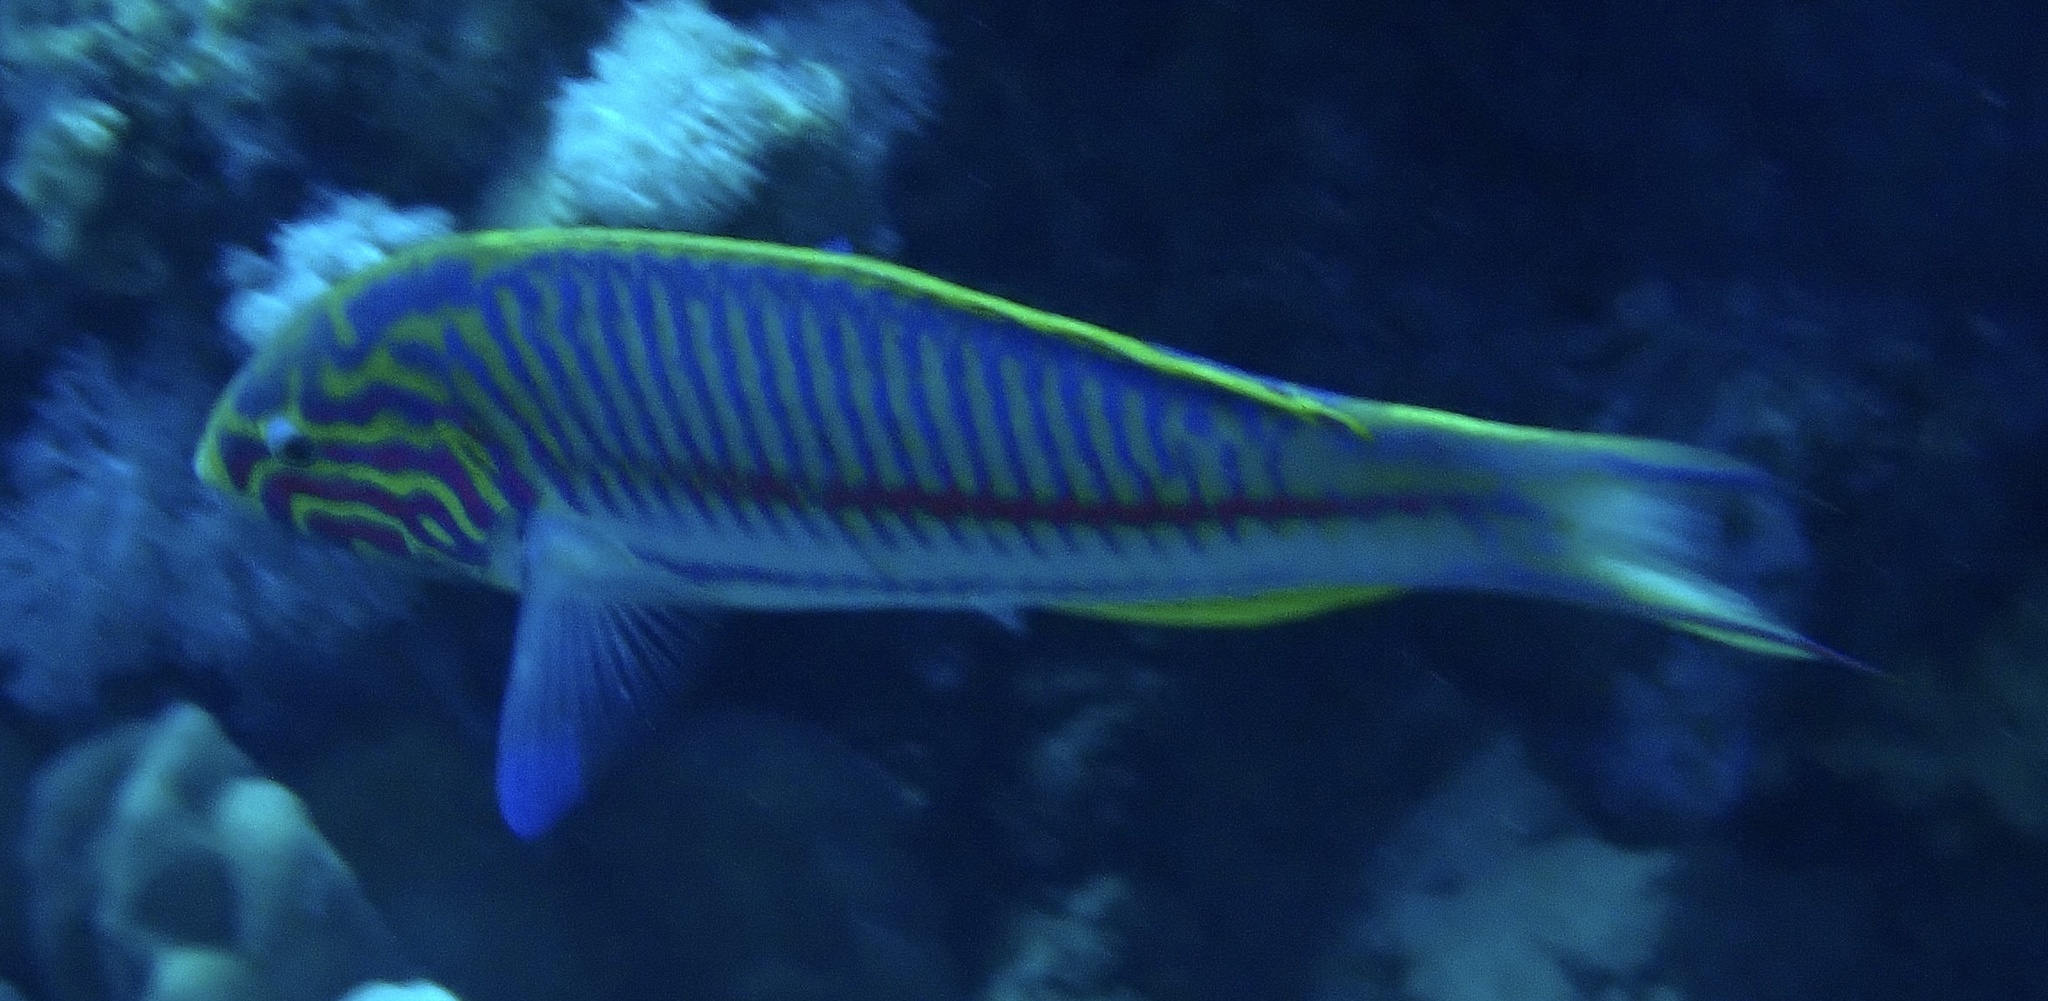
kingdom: Animalia
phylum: Chordata
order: Perciformes
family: Labridae
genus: Thalassoma
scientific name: Thalassoma rueppellii
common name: Klunzinger's wrasse
